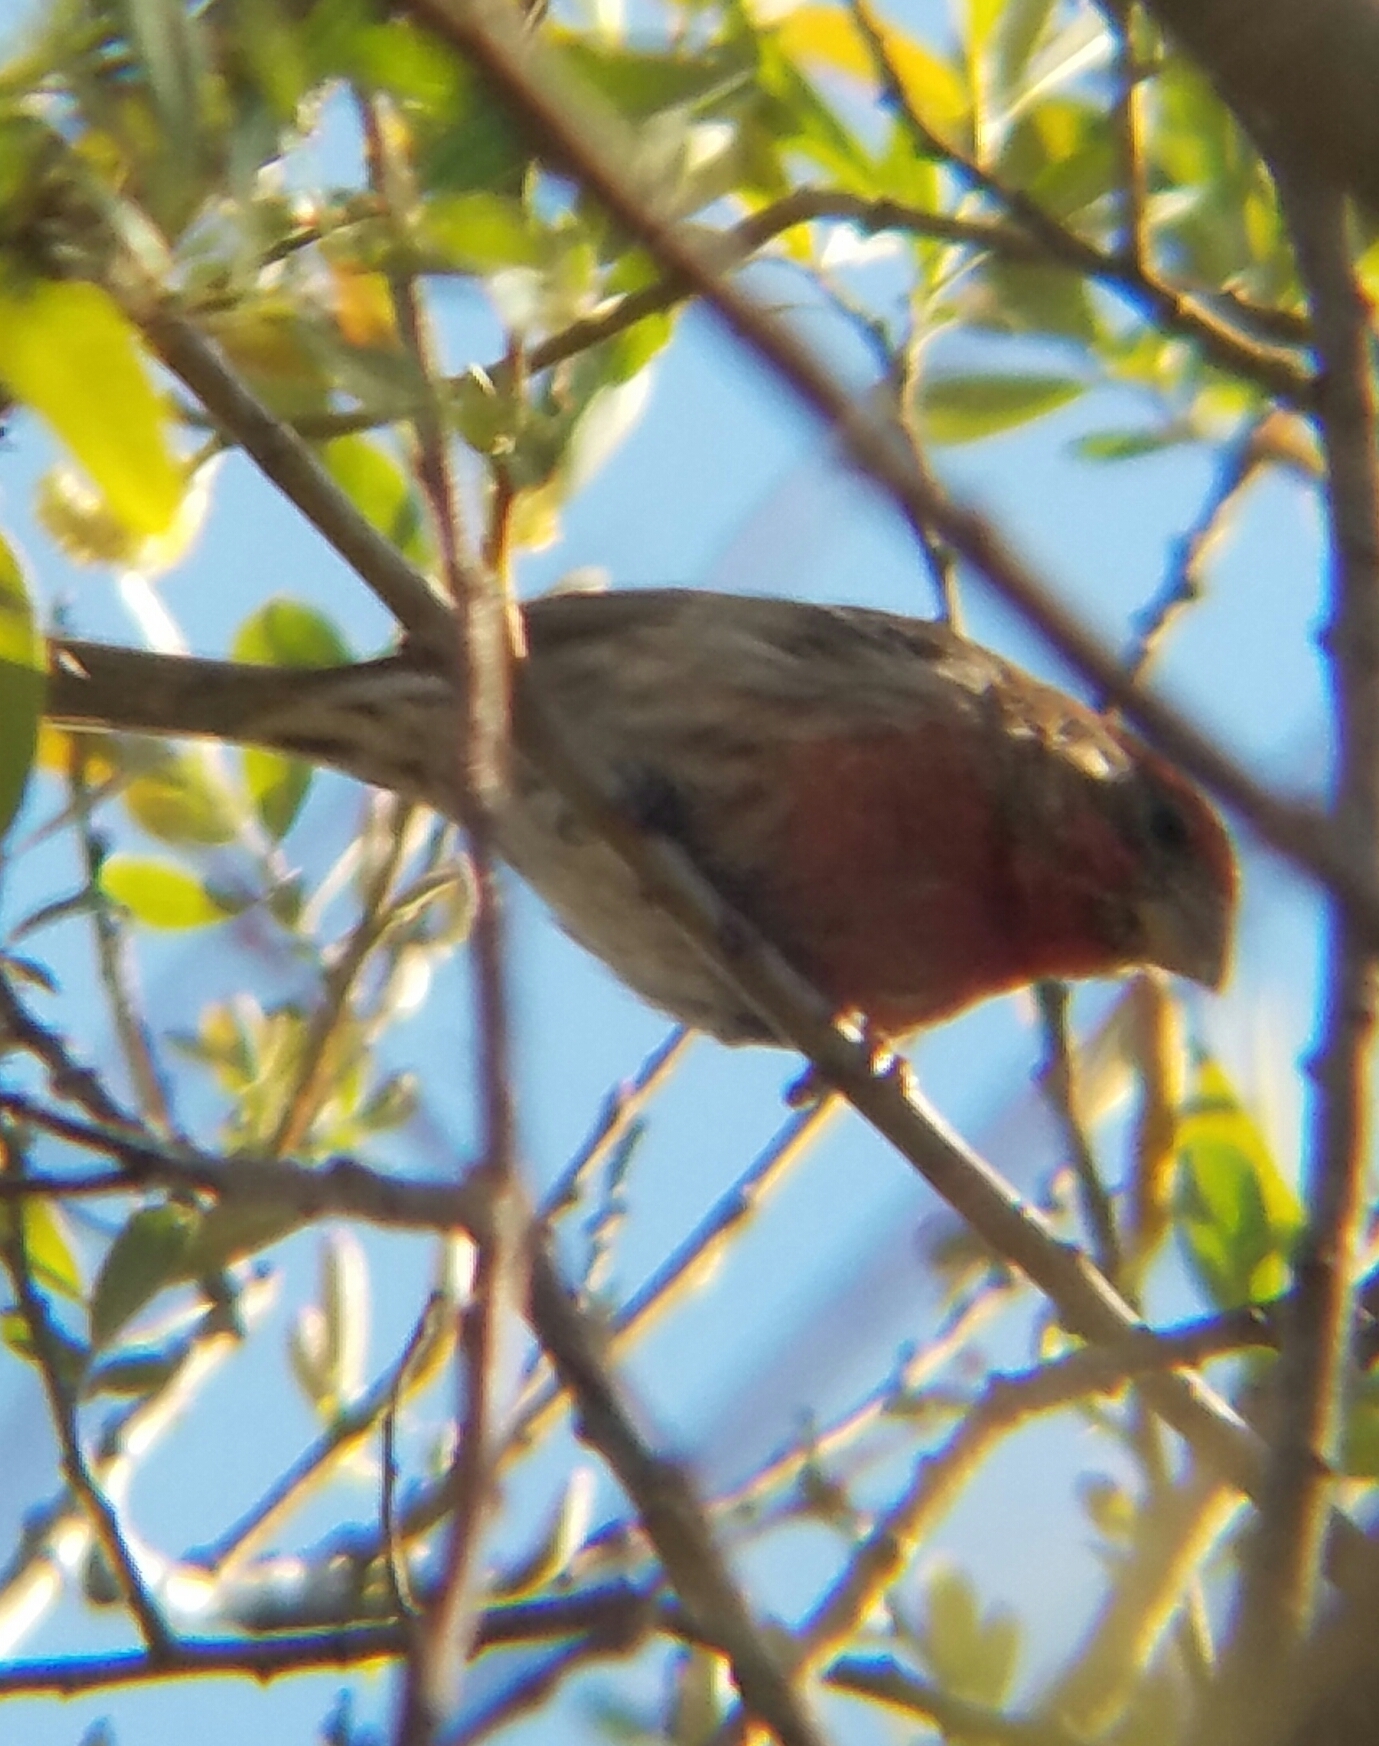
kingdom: Animalia
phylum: Chordata
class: Aves
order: Passeriformes
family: Fringillidae
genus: Haemorhous
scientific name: Haemorhous mexicanus
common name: House finch
